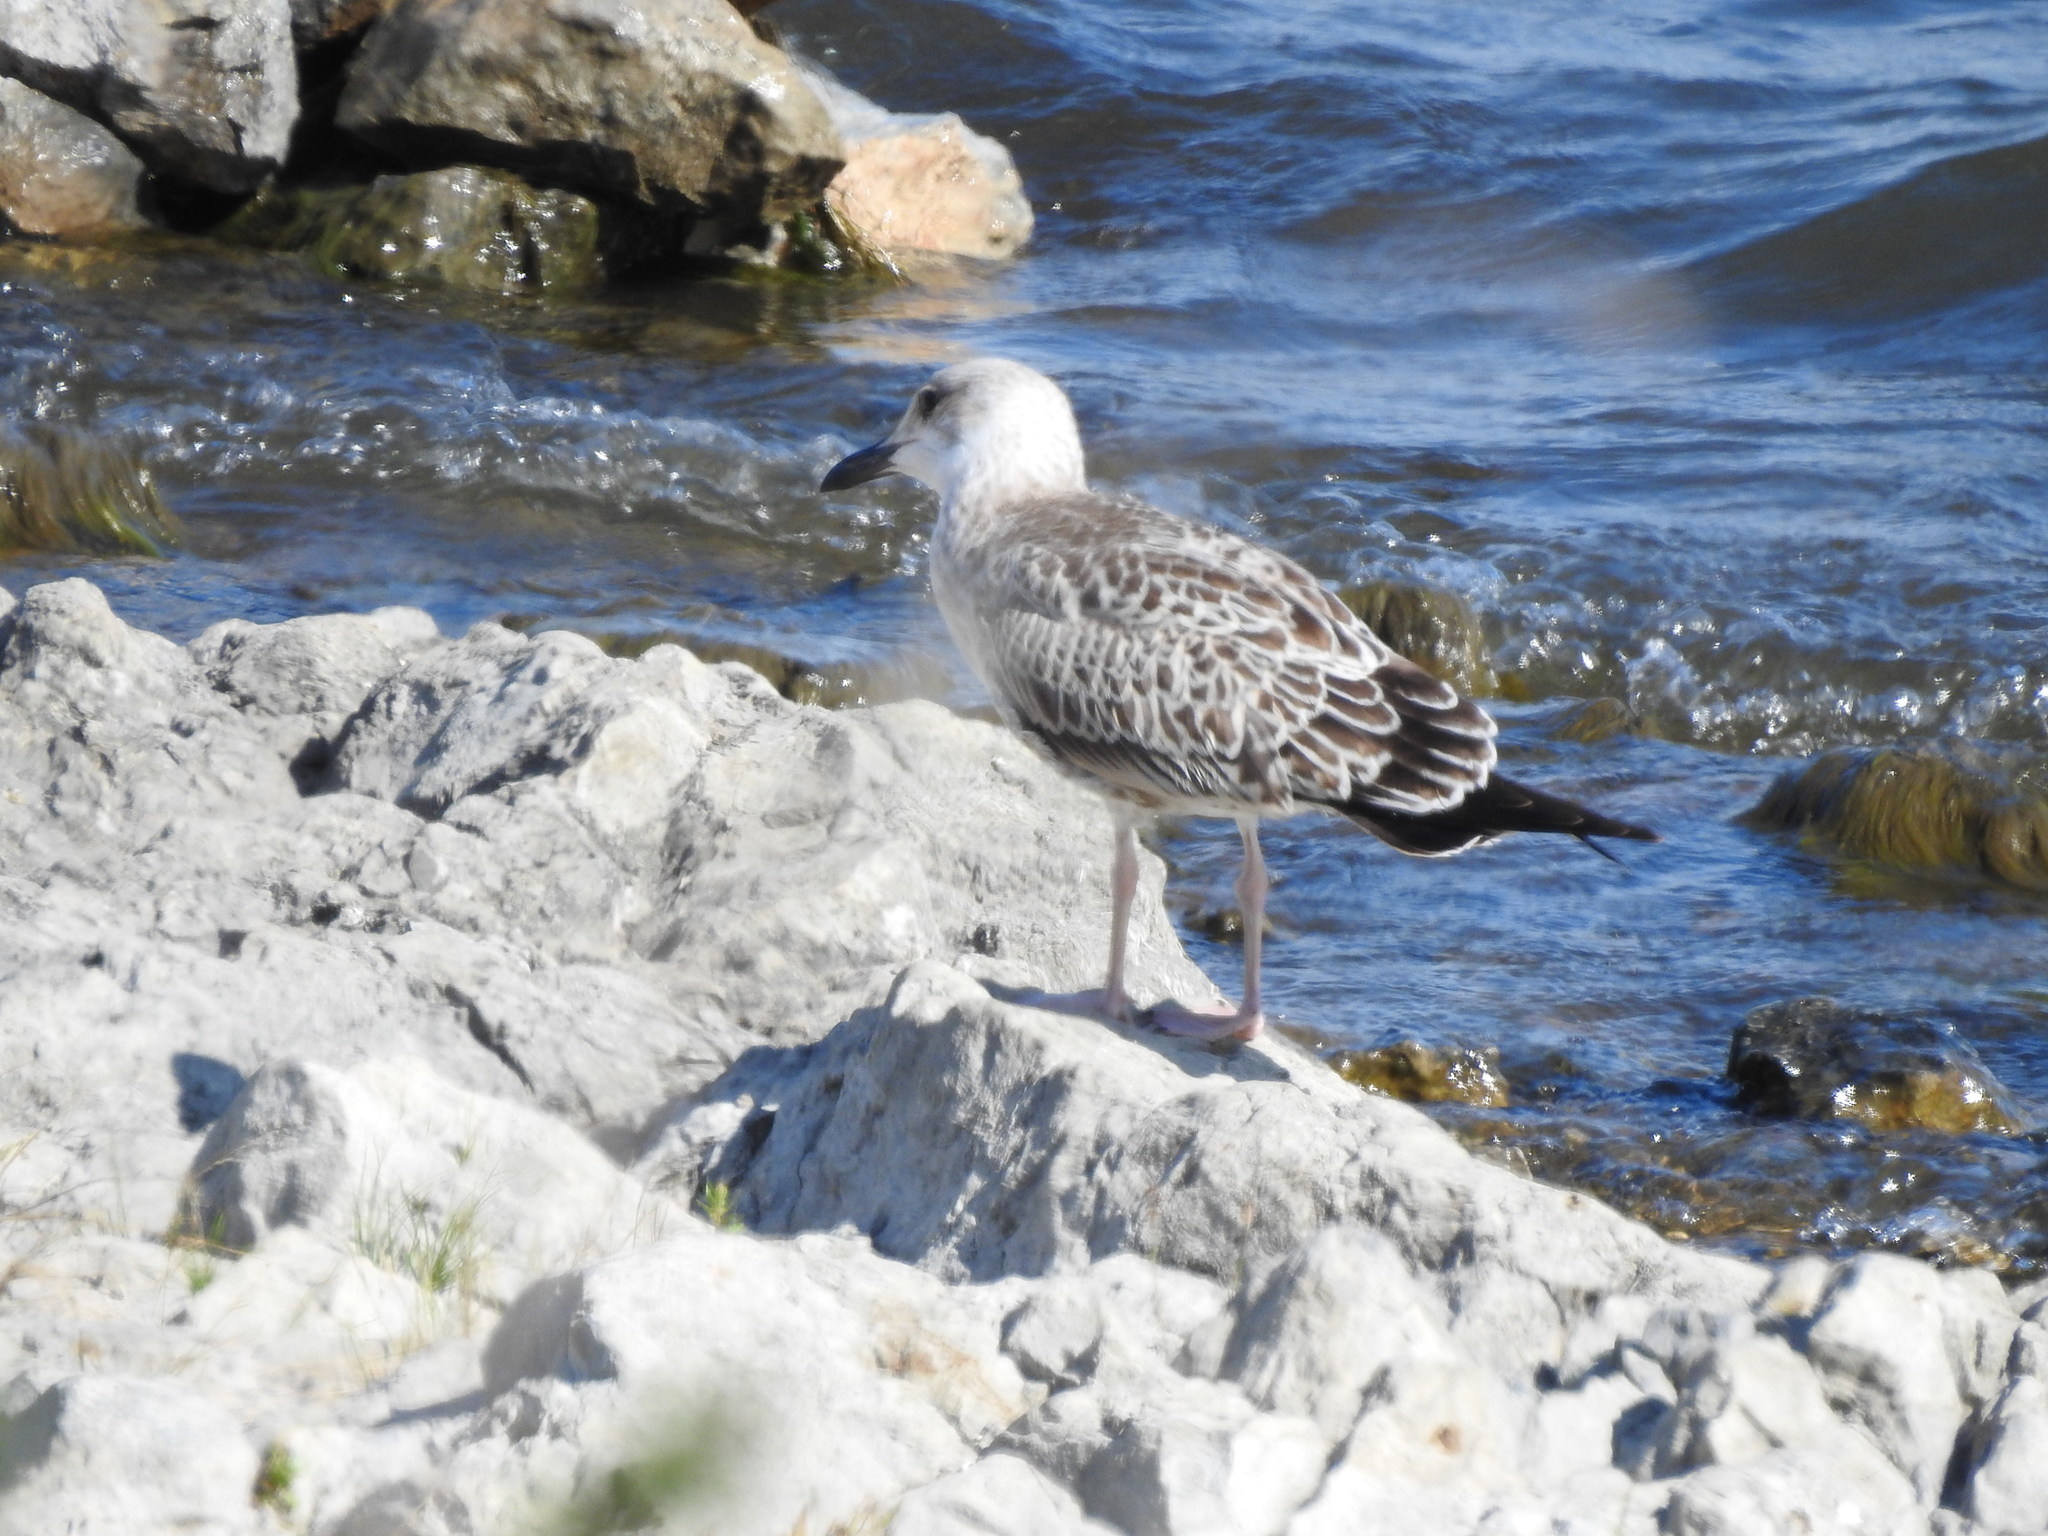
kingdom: Animalia
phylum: Chordata
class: Aves
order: Charadriiformes
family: Laridae
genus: Larus
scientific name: Larus fuscus
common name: Lesser black-backed gull
